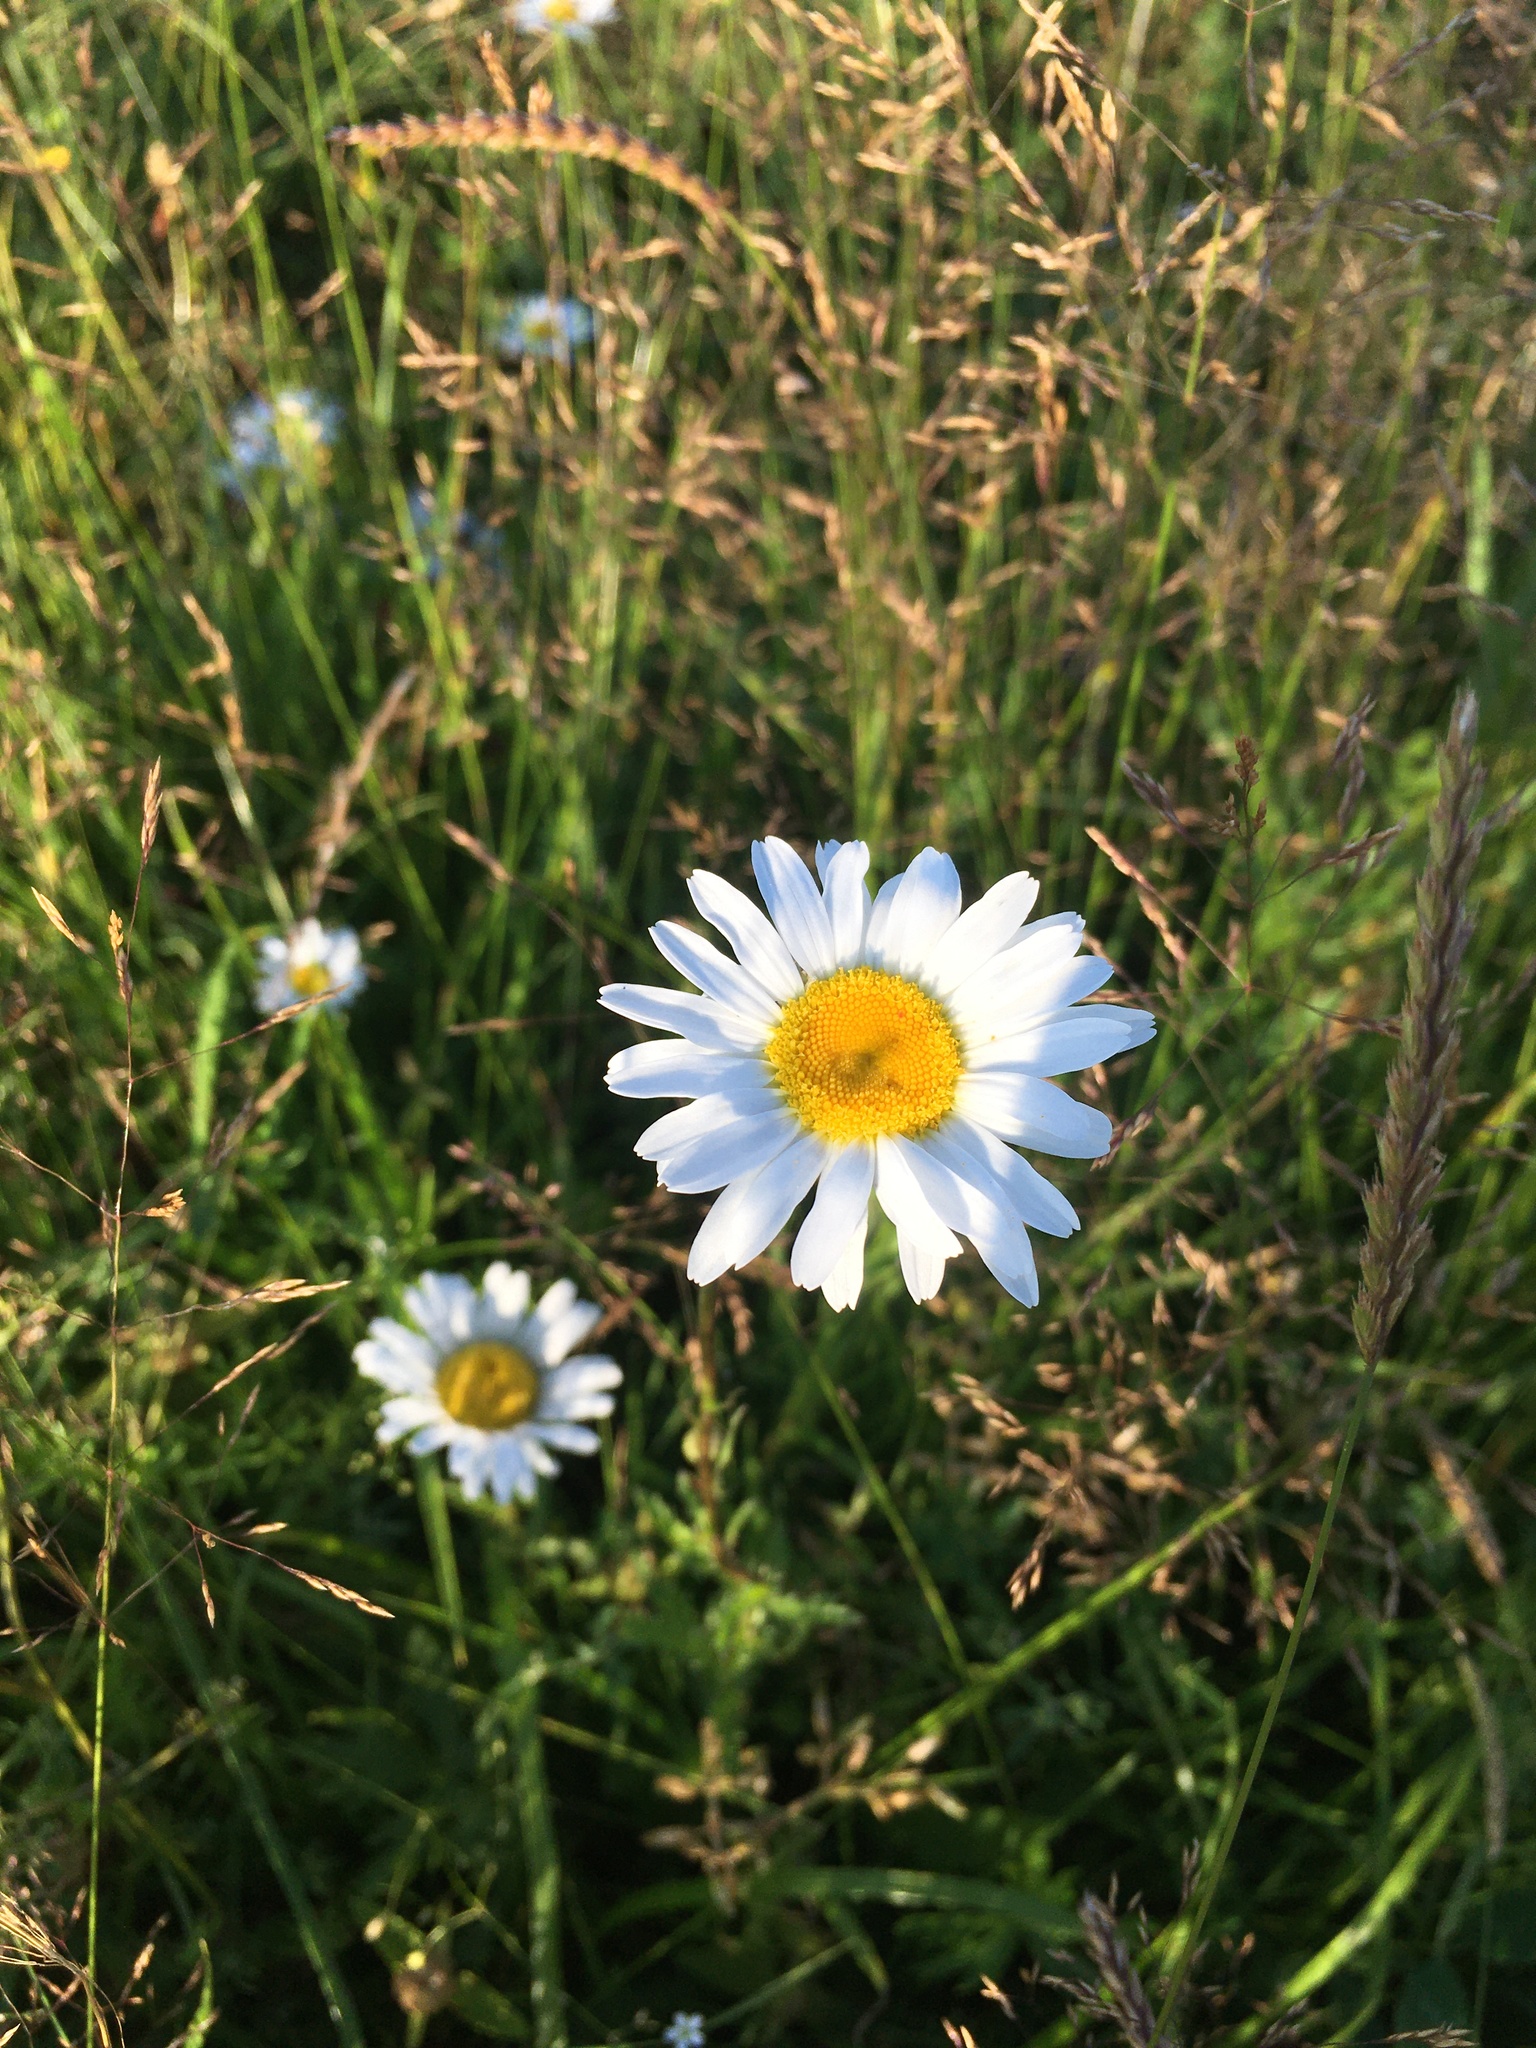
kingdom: Plantae
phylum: Tracheophyta
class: Magnoliopsida
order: Asterales
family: Asteraceae
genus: Leucanthemum
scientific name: Leucanthemum vulgare
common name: Oxeye daisy
